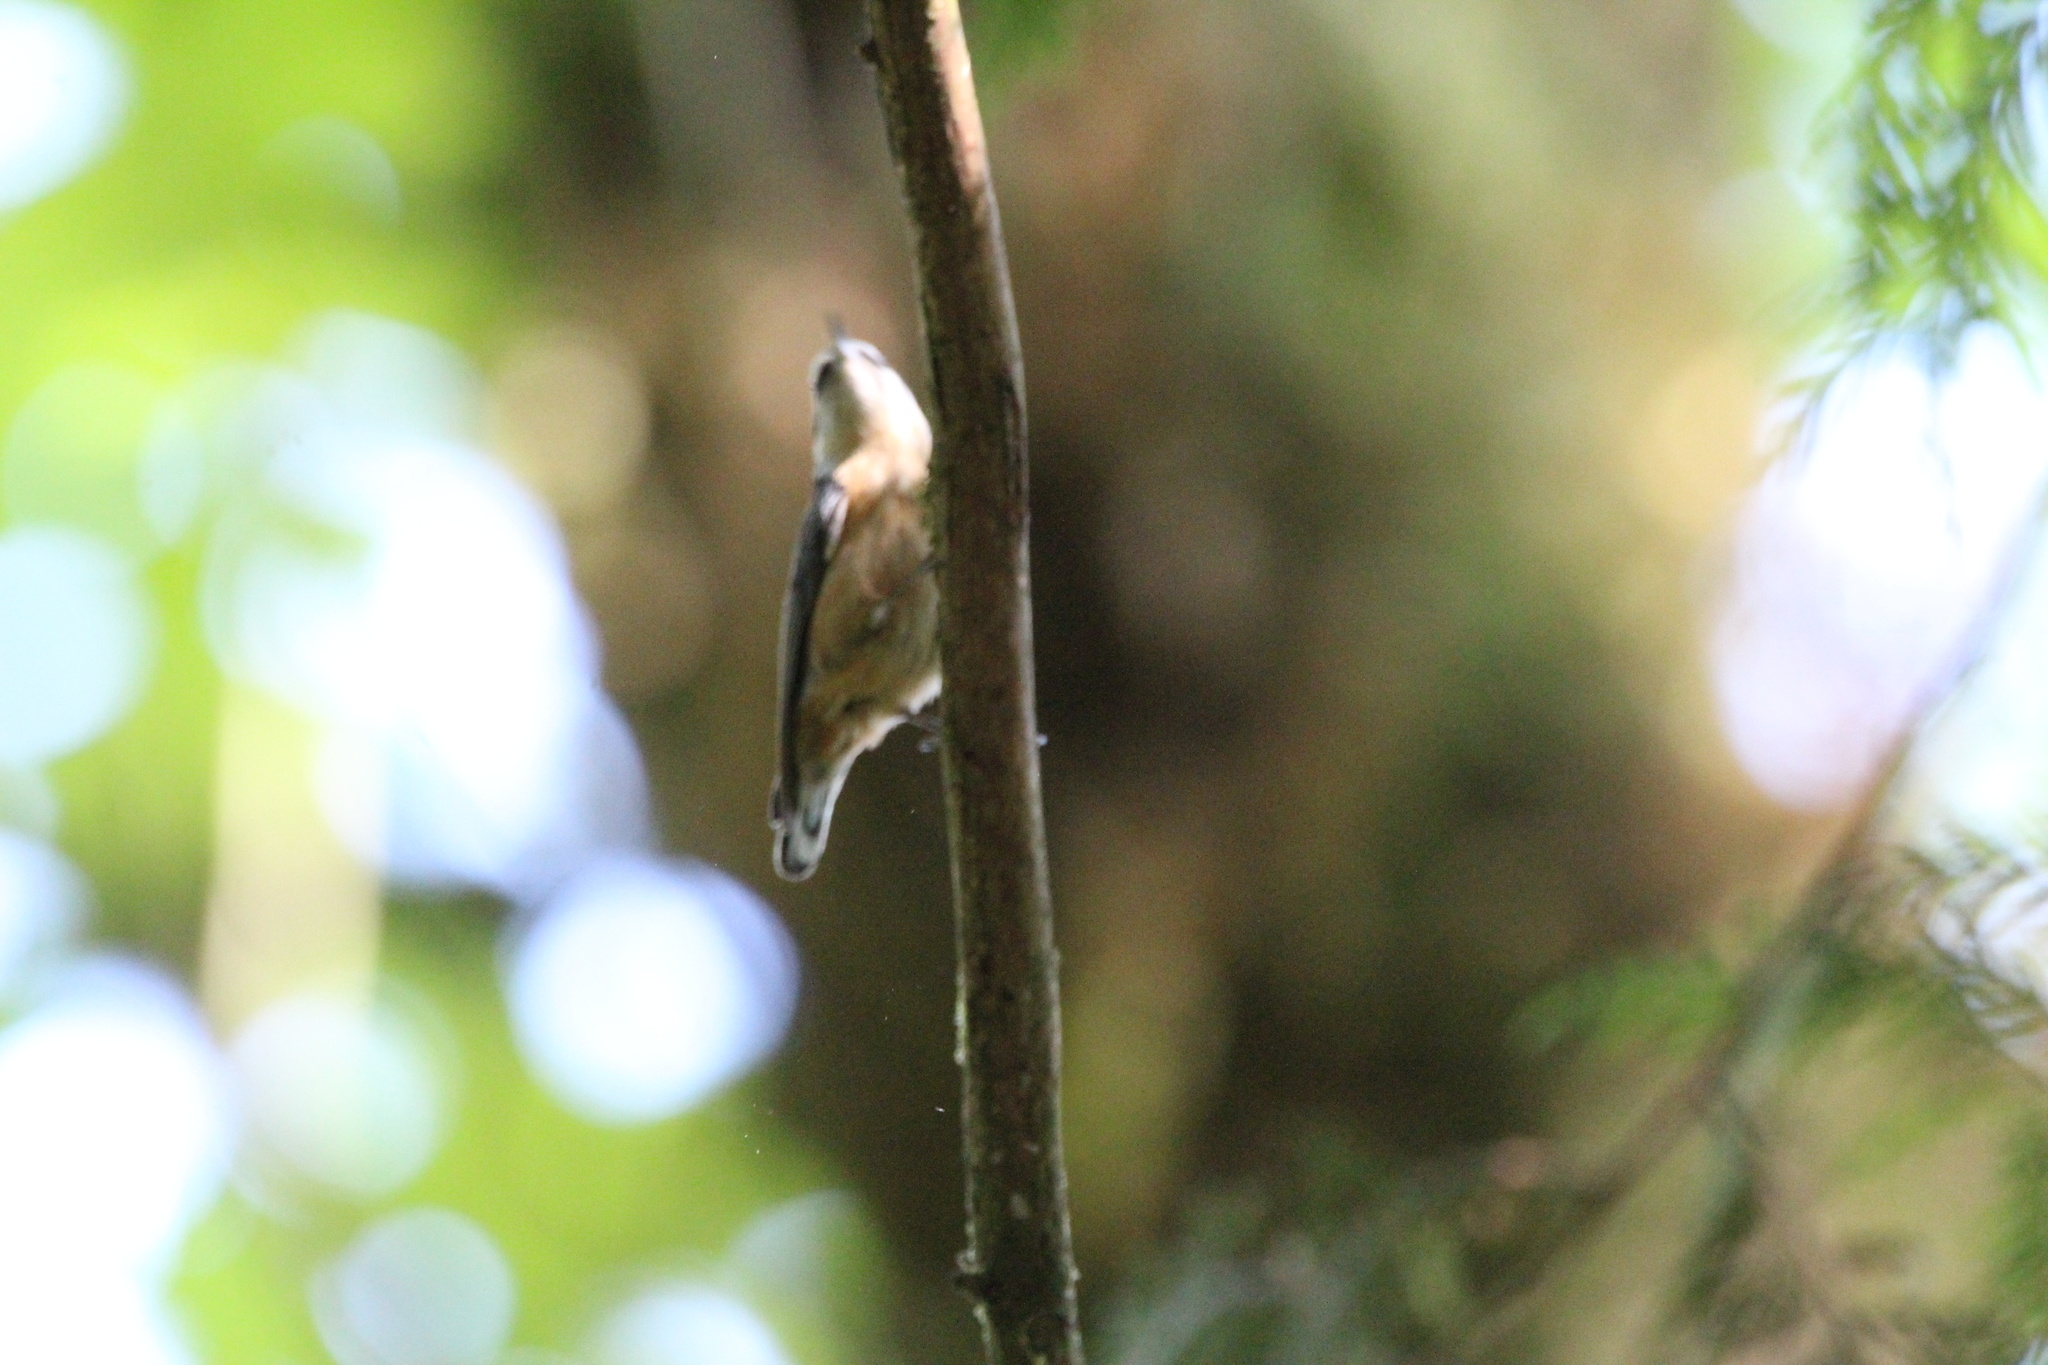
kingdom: Animalia
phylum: Chordata
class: Aves
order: Passeriformes
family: Sittidae
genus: Sitta
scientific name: Sitta canadensis
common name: Red-breasted nuthatch
